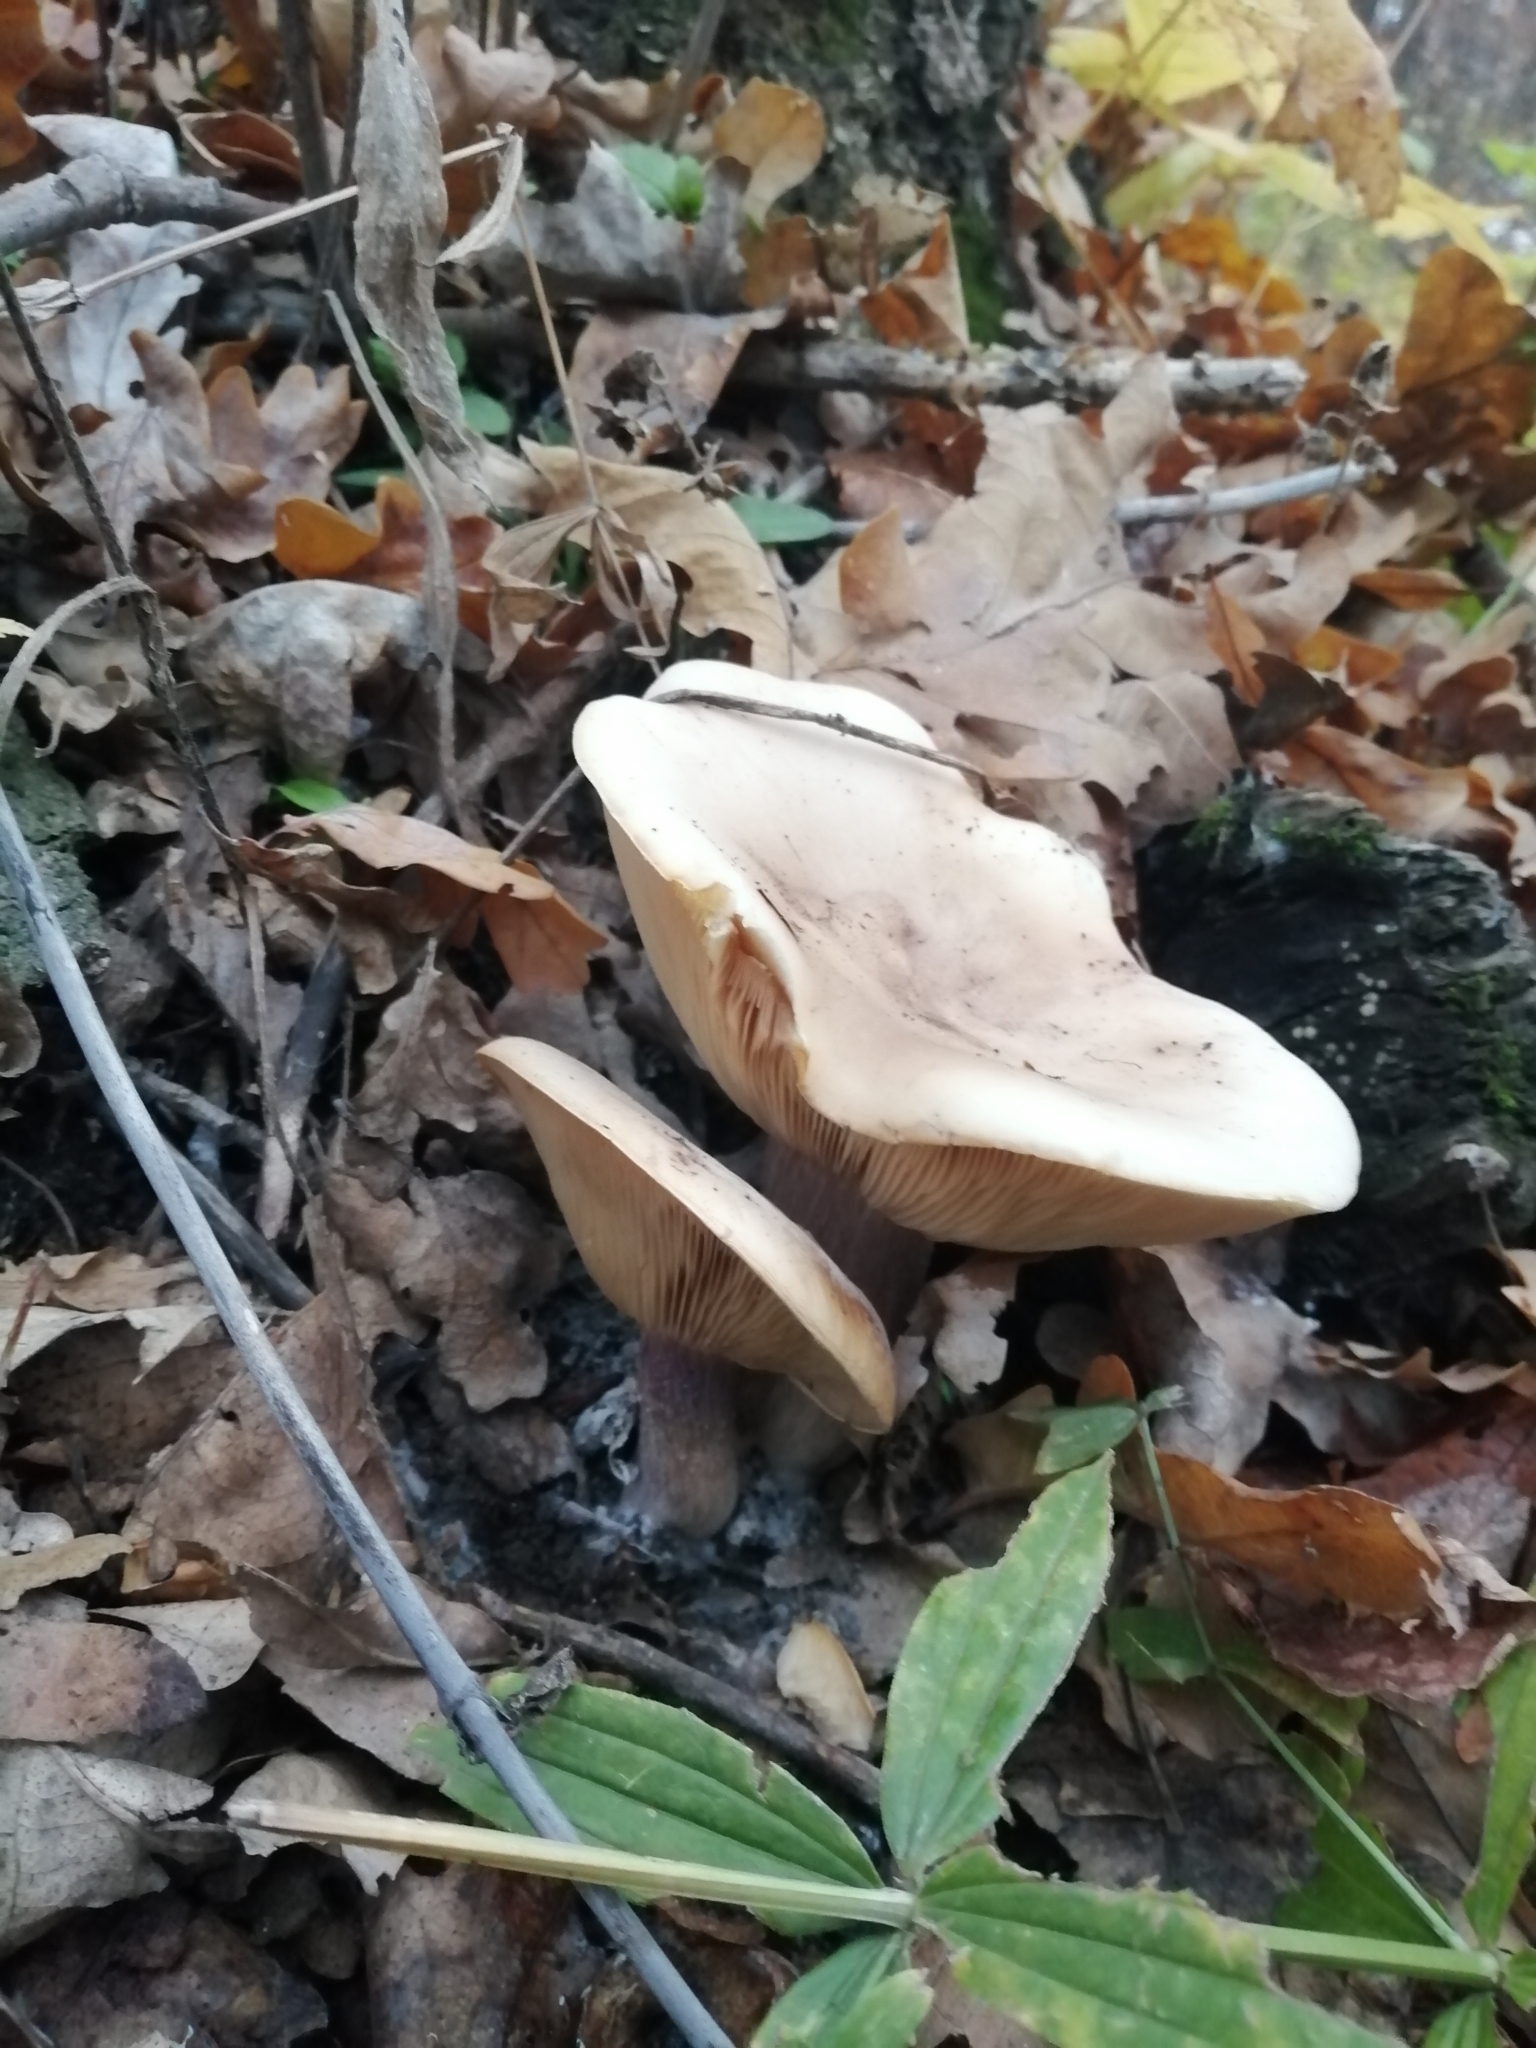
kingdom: Fungi
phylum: Basidiomycota
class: Agaricomycetes
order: Agaricales
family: Omphalotaceae
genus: Collybiopsis
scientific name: Collybiopsis peronata
